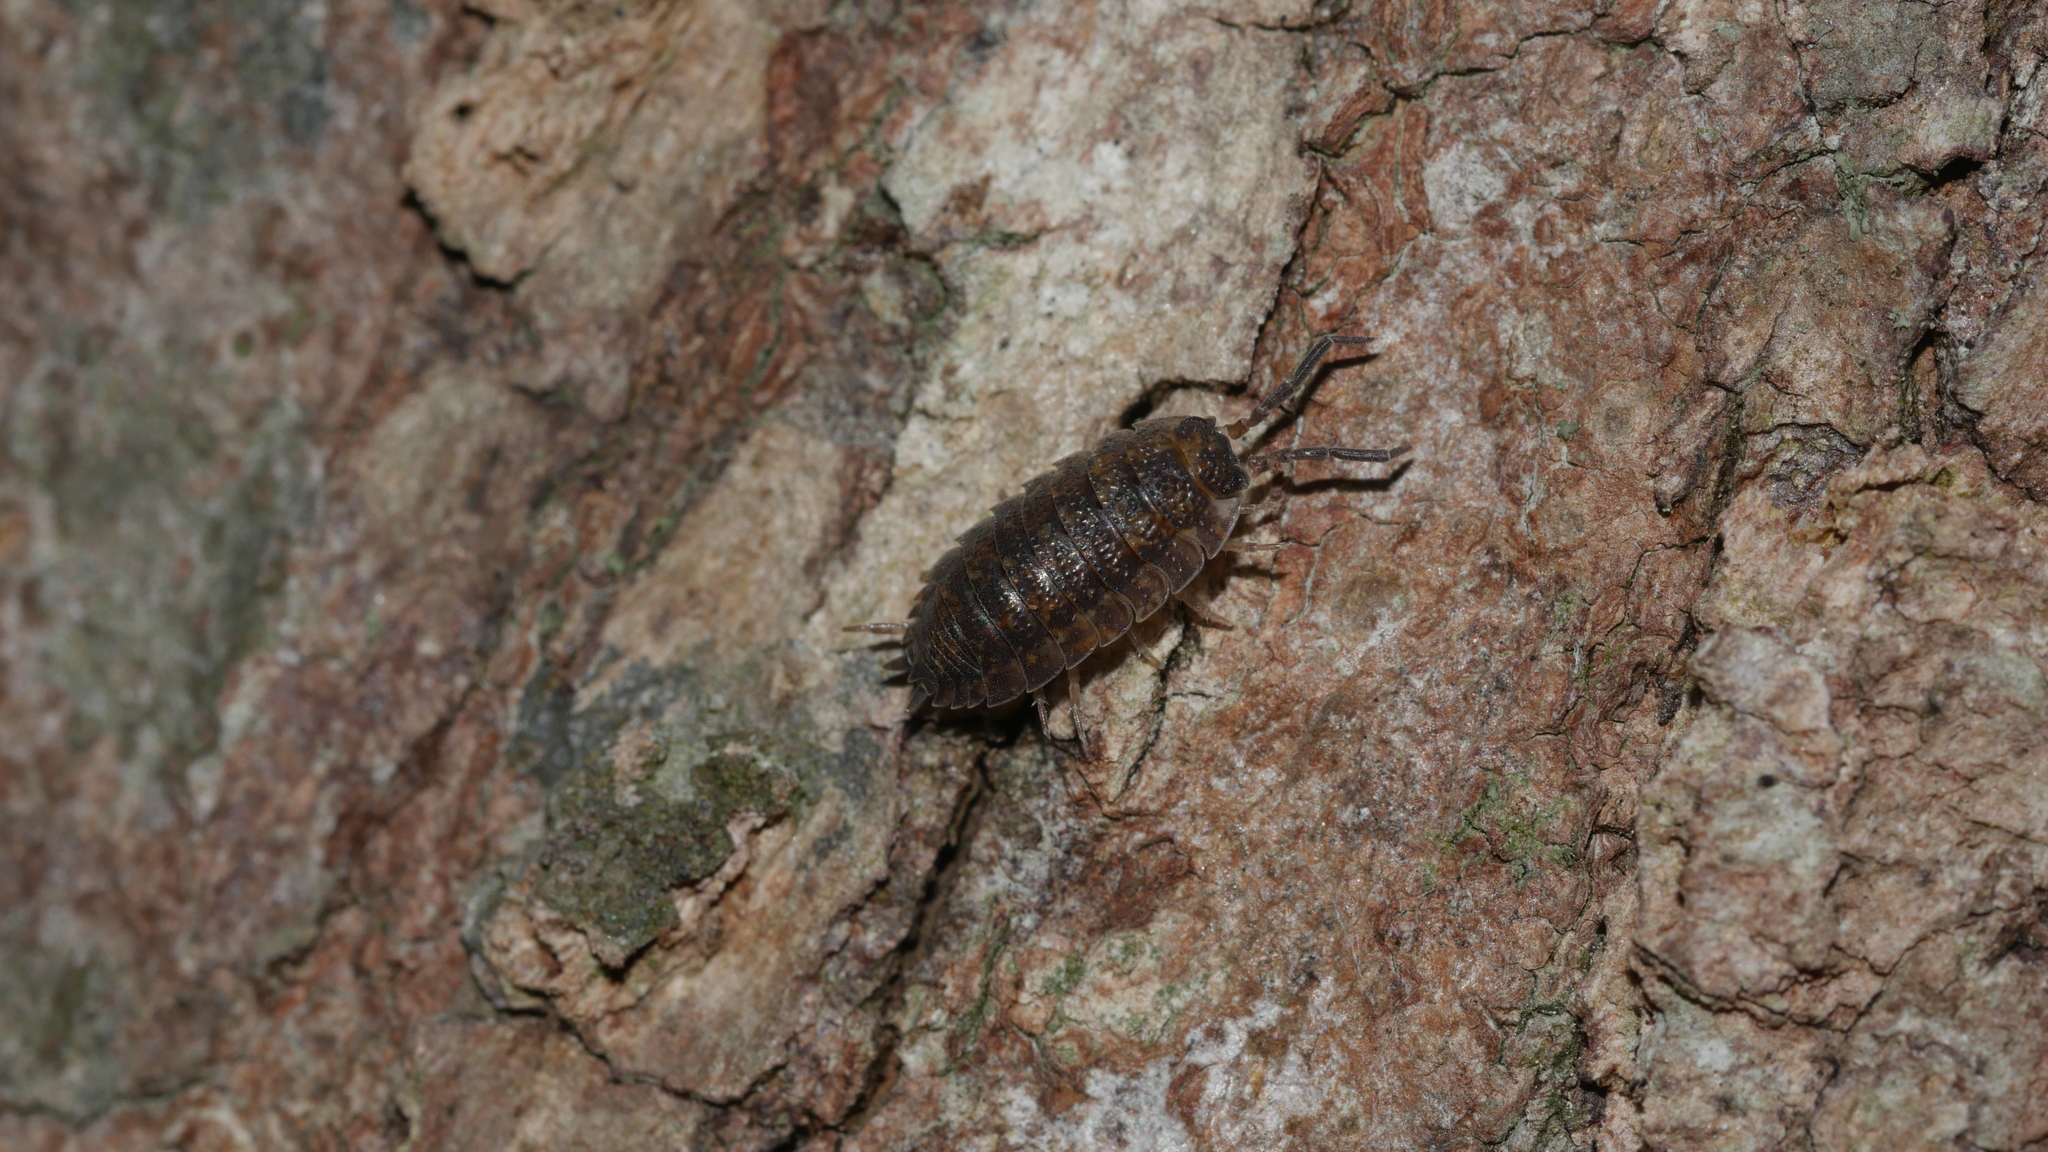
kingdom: Animalia
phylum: Arthropoda
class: Malacostraca
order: Isopoda
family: Porcellionidae
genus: Porcellio
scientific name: Porcellio scaber
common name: Common rough woodlouse
